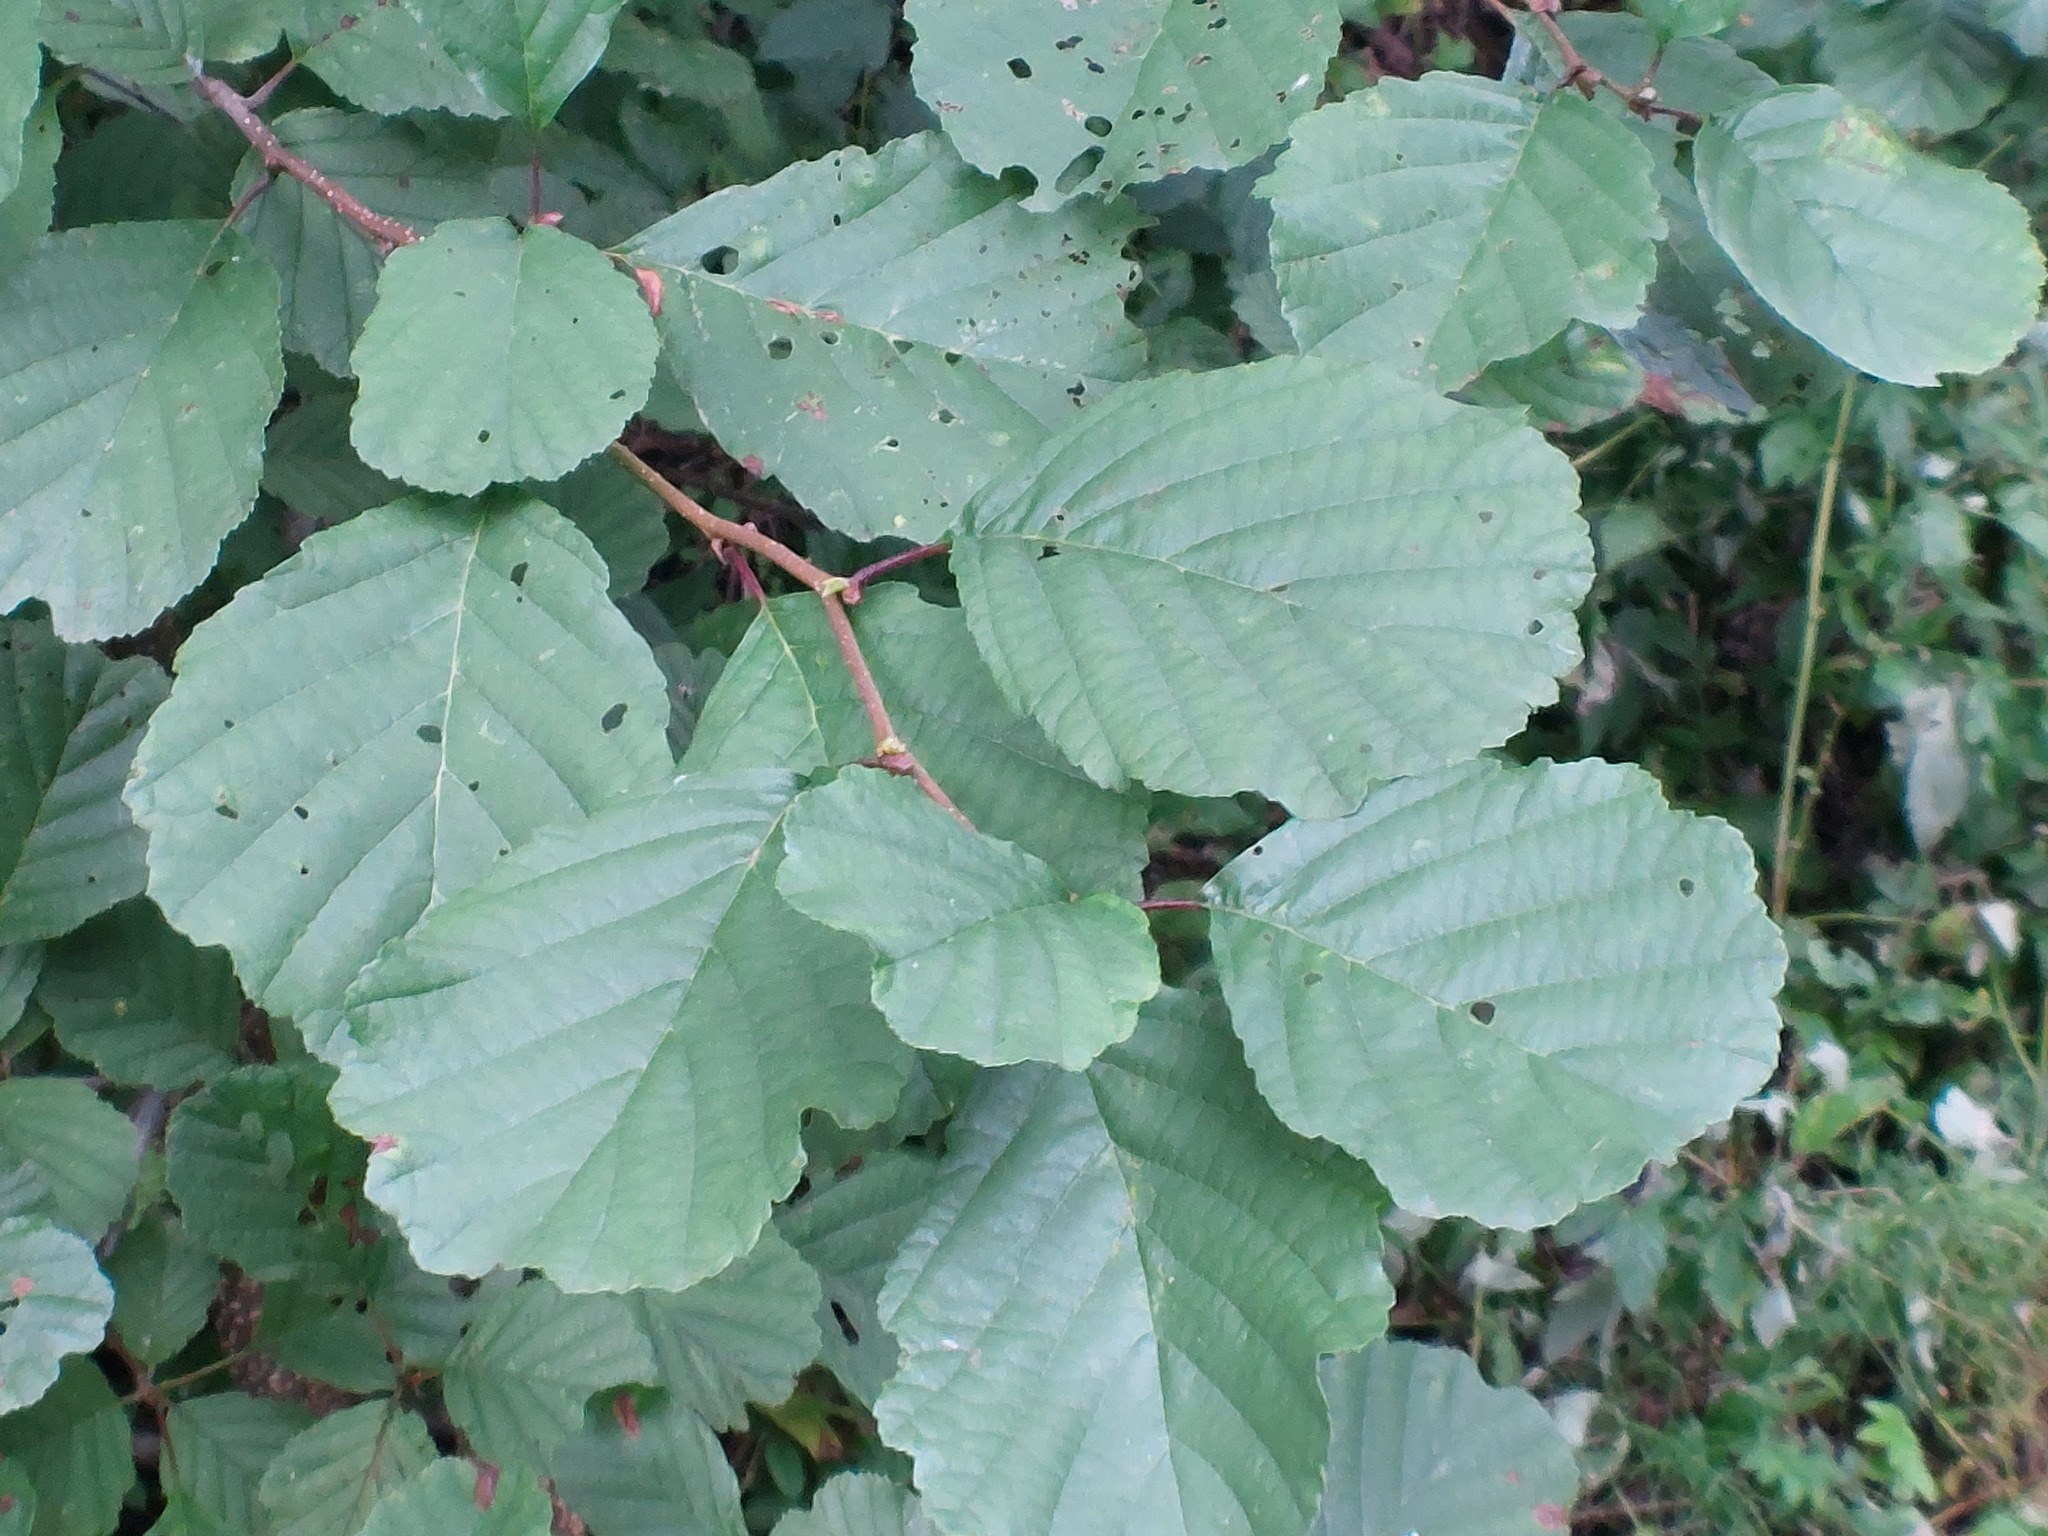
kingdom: Plantae
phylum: Tracheophyta
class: Magnoliopsida
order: Fagales
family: Betulaceae
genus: Alnus
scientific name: Alnus glutinosa
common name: Black alder
